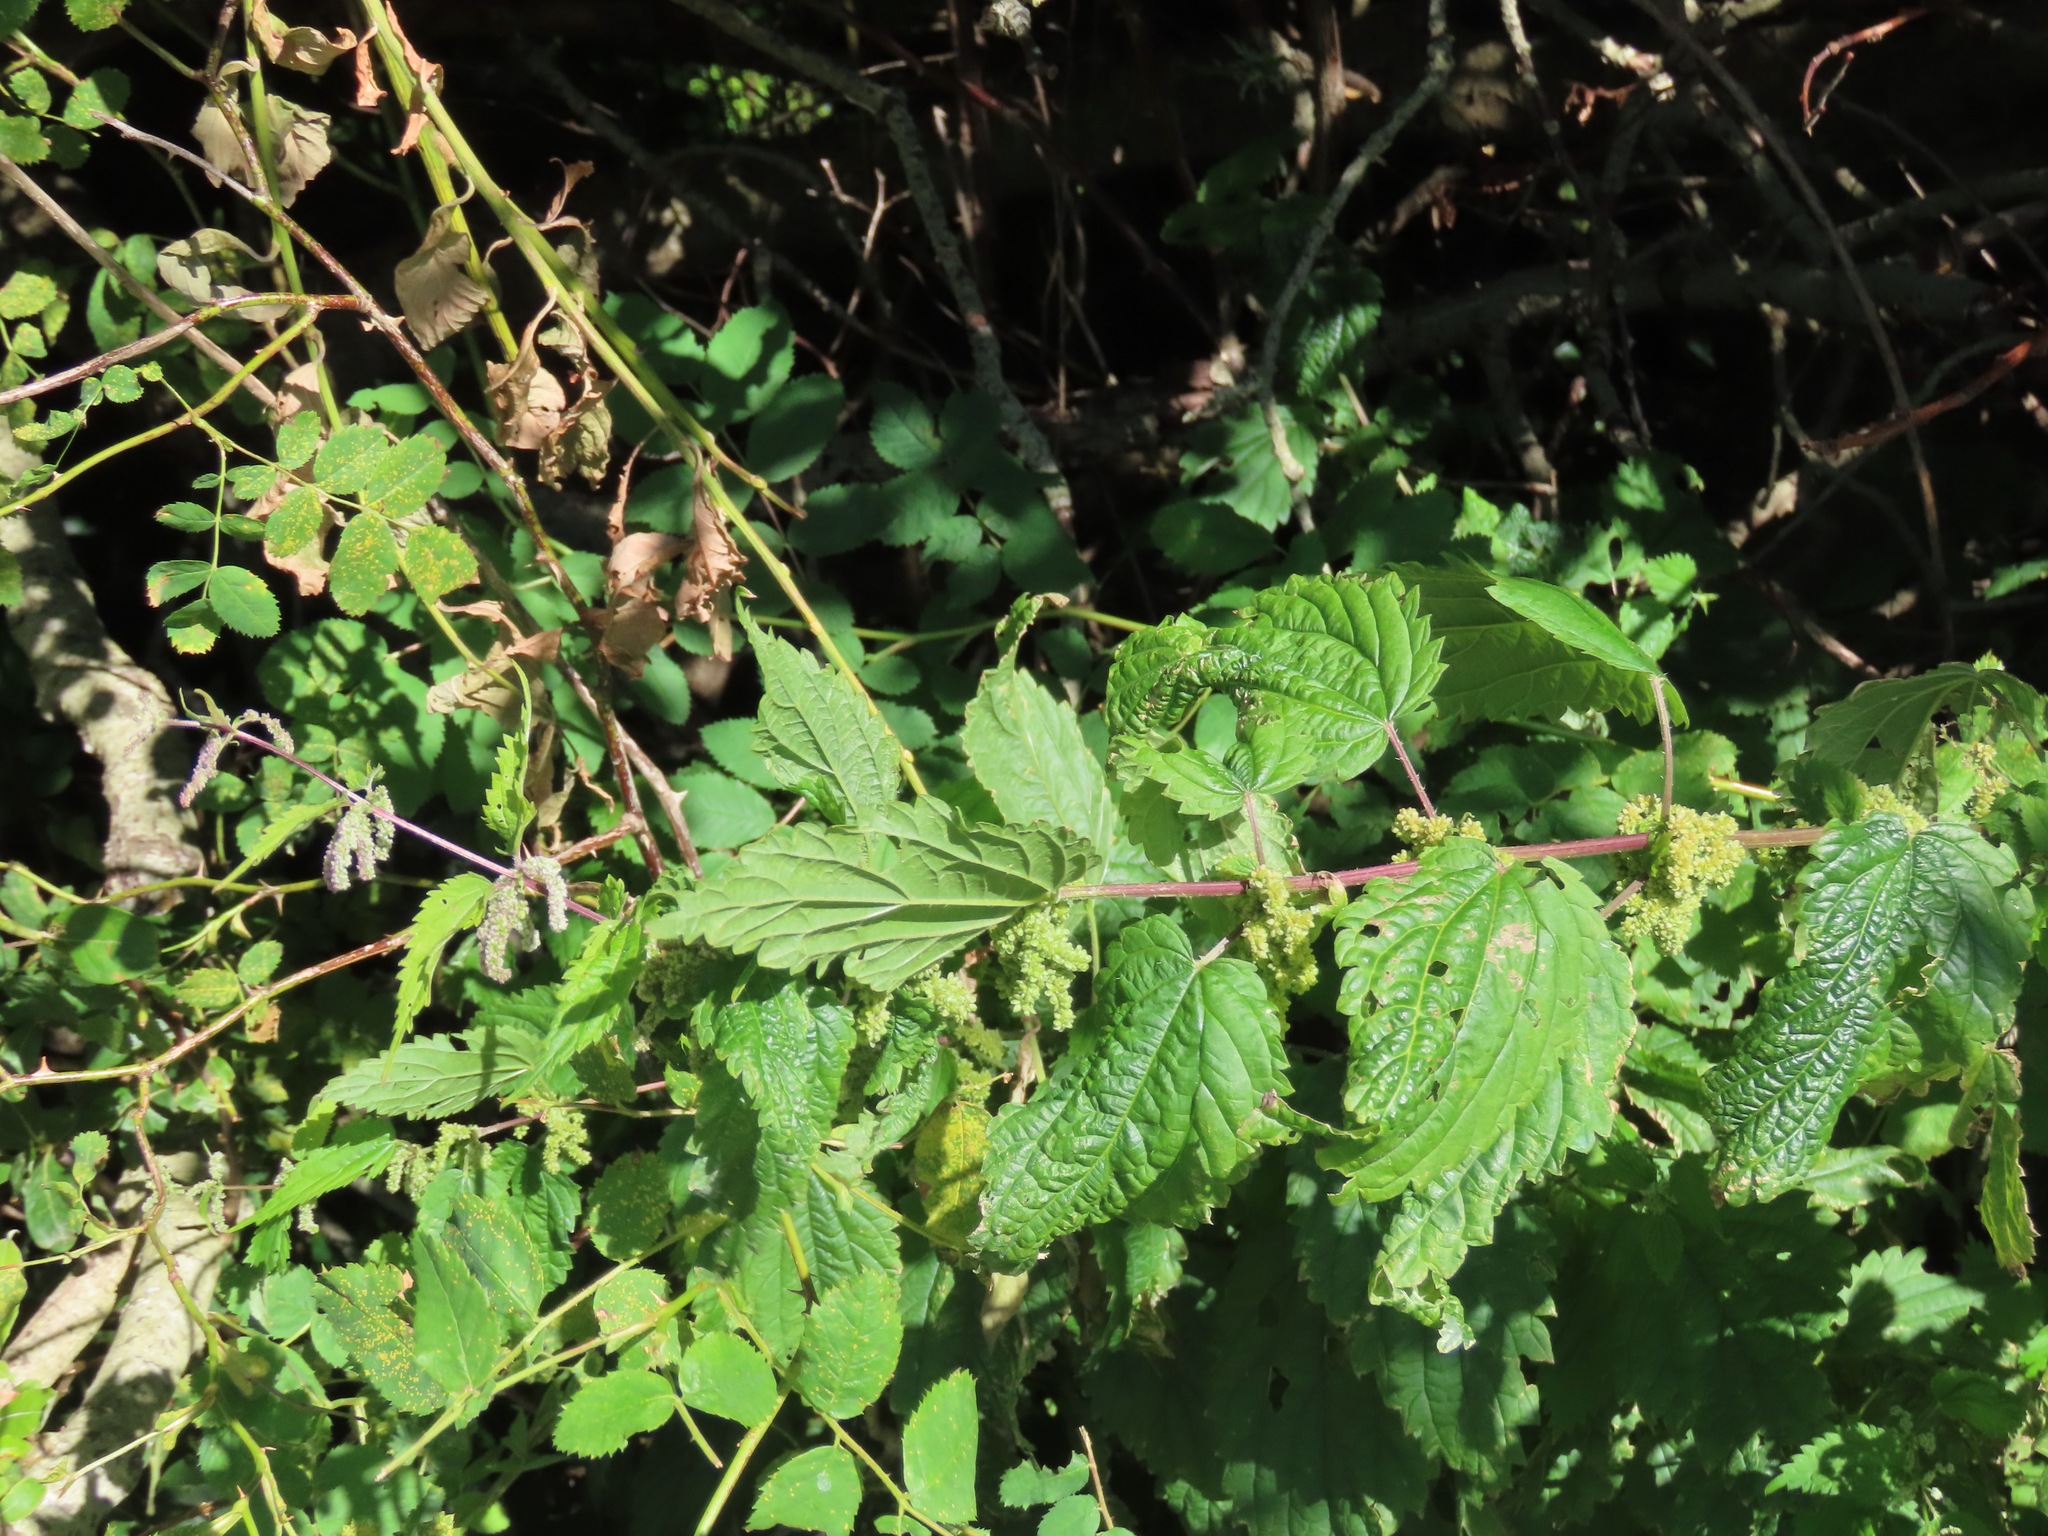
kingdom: Plantae
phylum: Tracheophyta
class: Magnoliopsida
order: Rosales
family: Urticaceae
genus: Urtica
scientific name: Urtica dioica
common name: Common nettle
